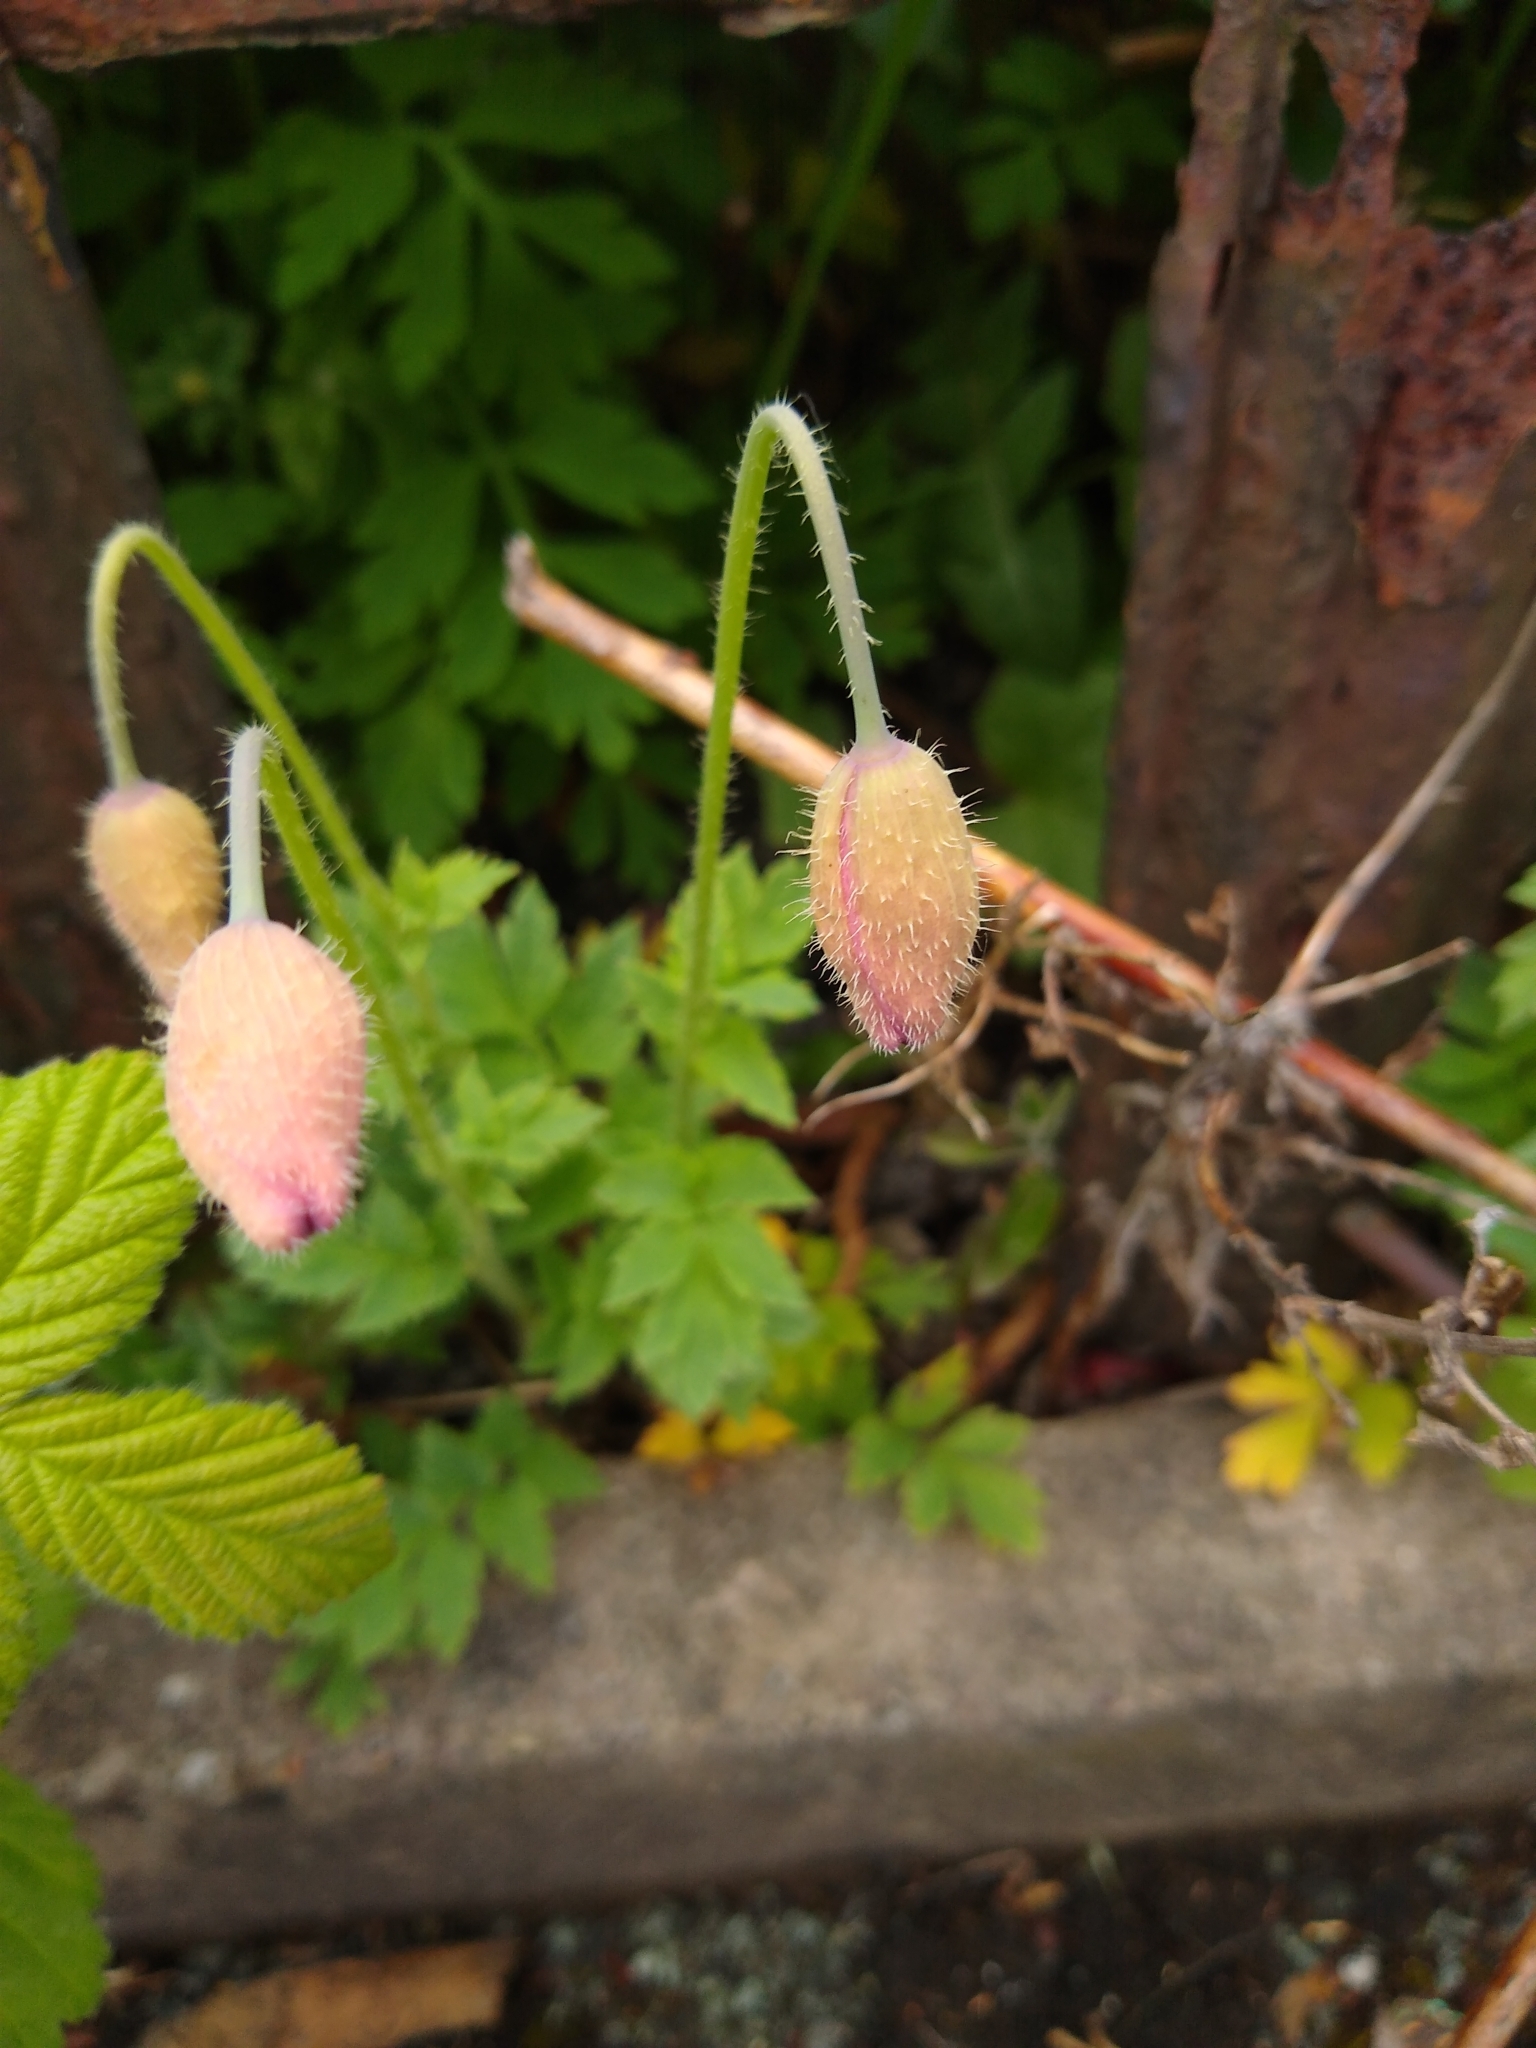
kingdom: Plantae
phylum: Tracheophyta
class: Magnoliopsida
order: Ranunculales
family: Papaveraceae
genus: Papaver
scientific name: Papaver cambricum
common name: Poppy
